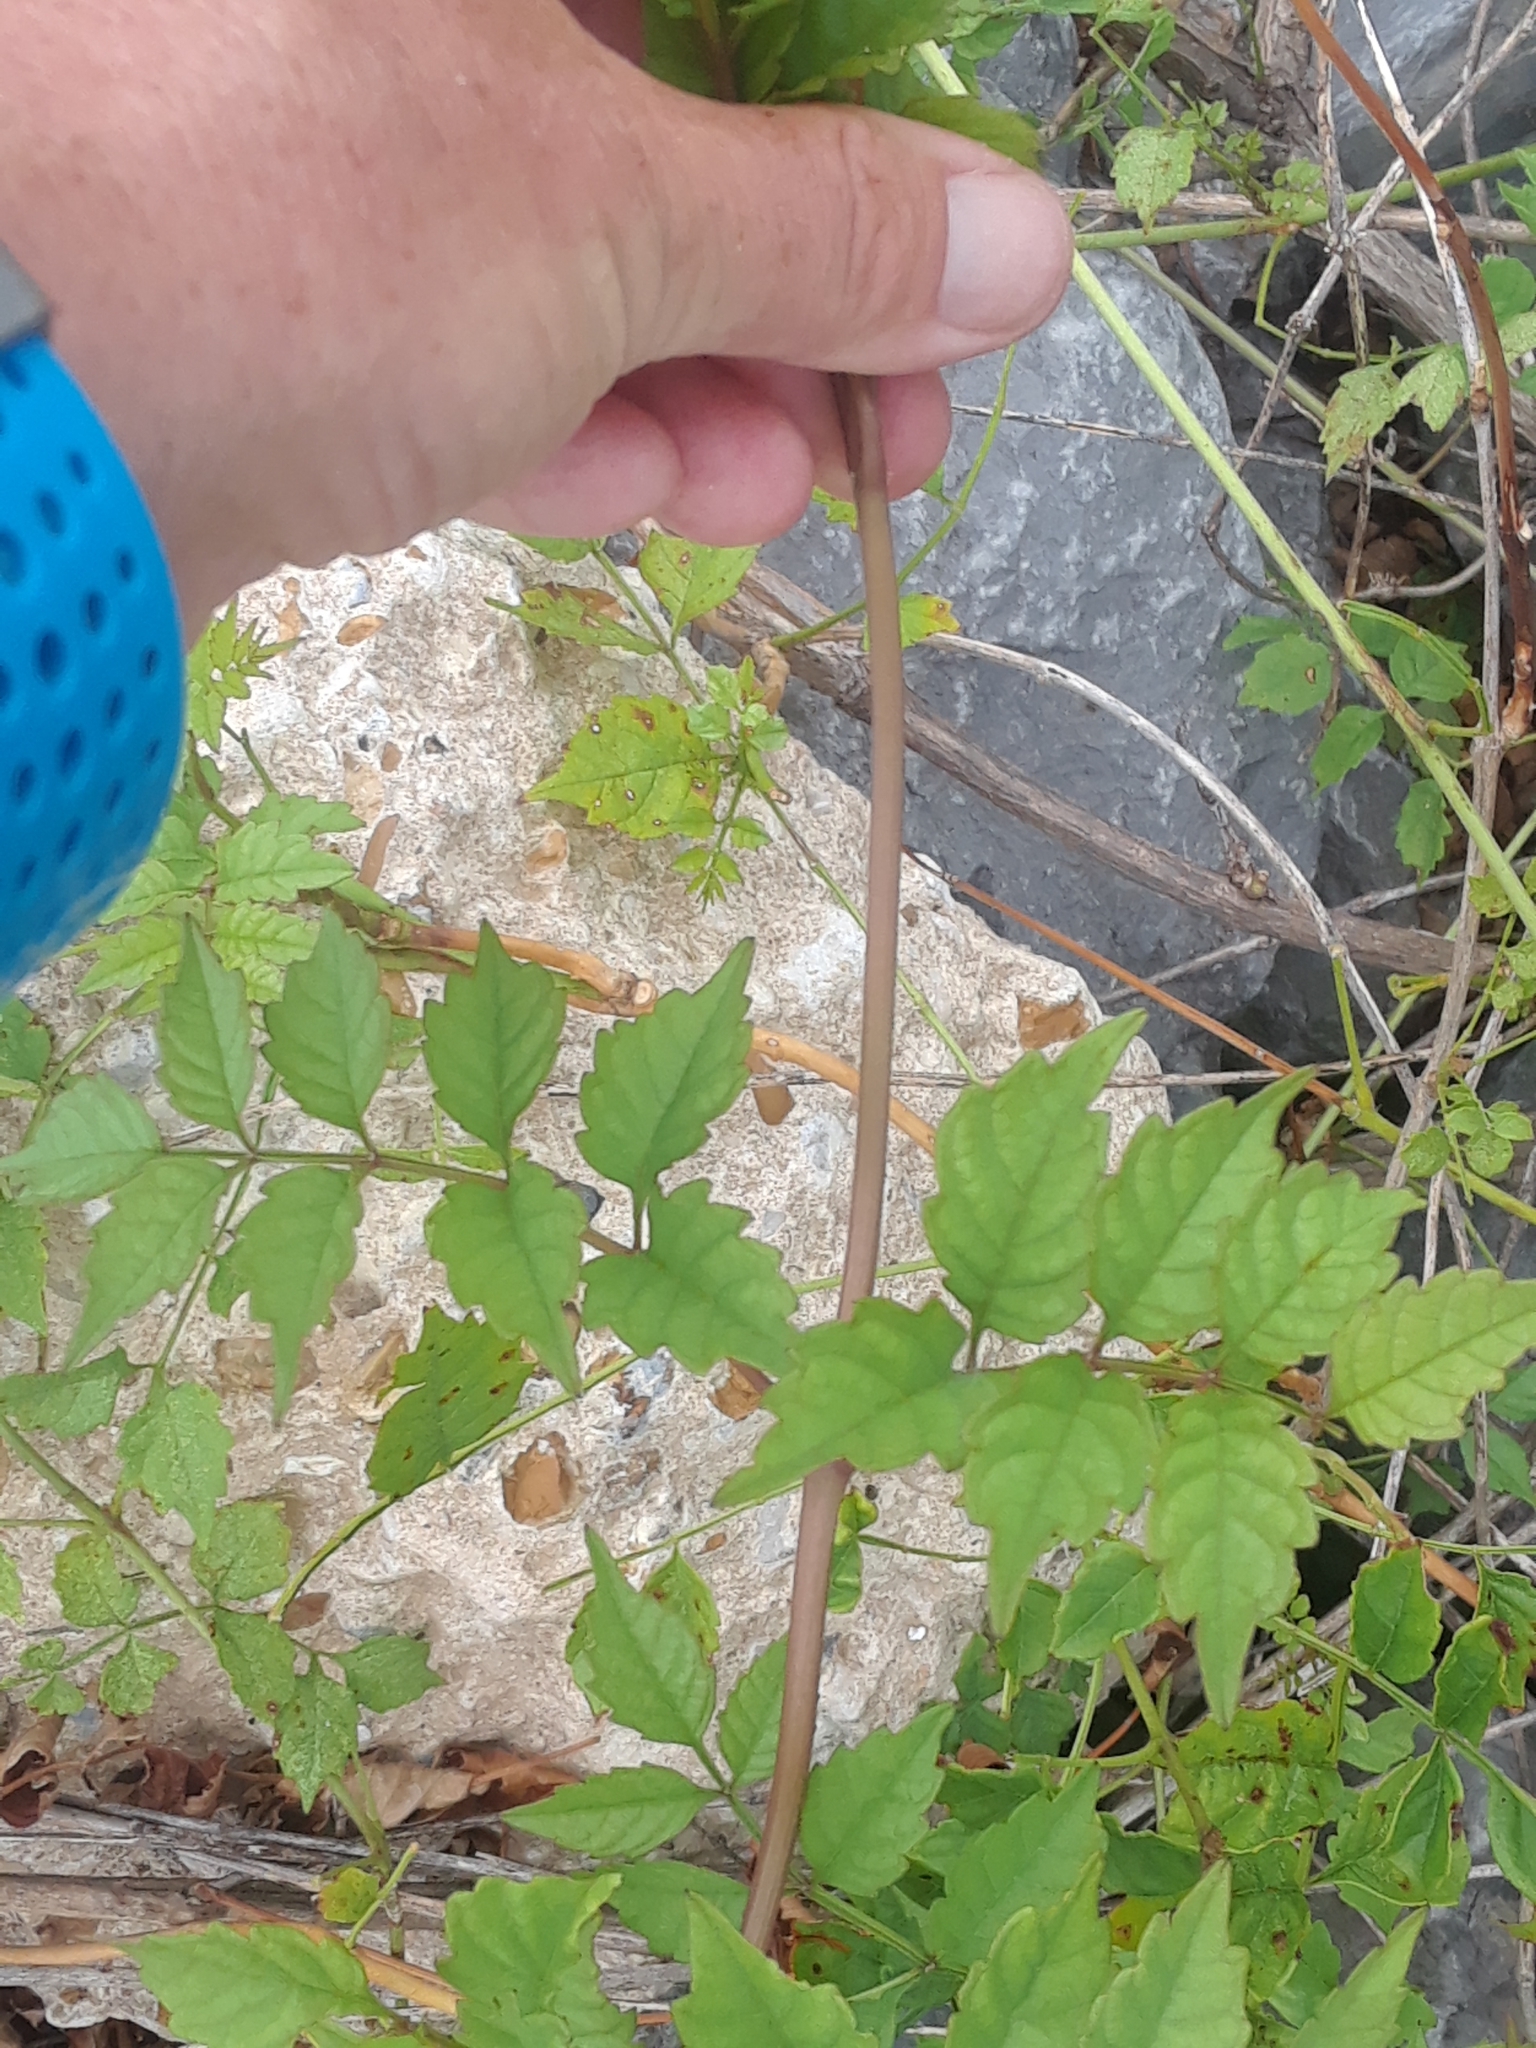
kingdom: Plantae
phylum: Tracheophyta
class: Magnoliopsida
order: Lamiales
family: Bignoniaceae
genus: Campsis
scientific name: Campsis radicans
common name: Trumpet-creeper
